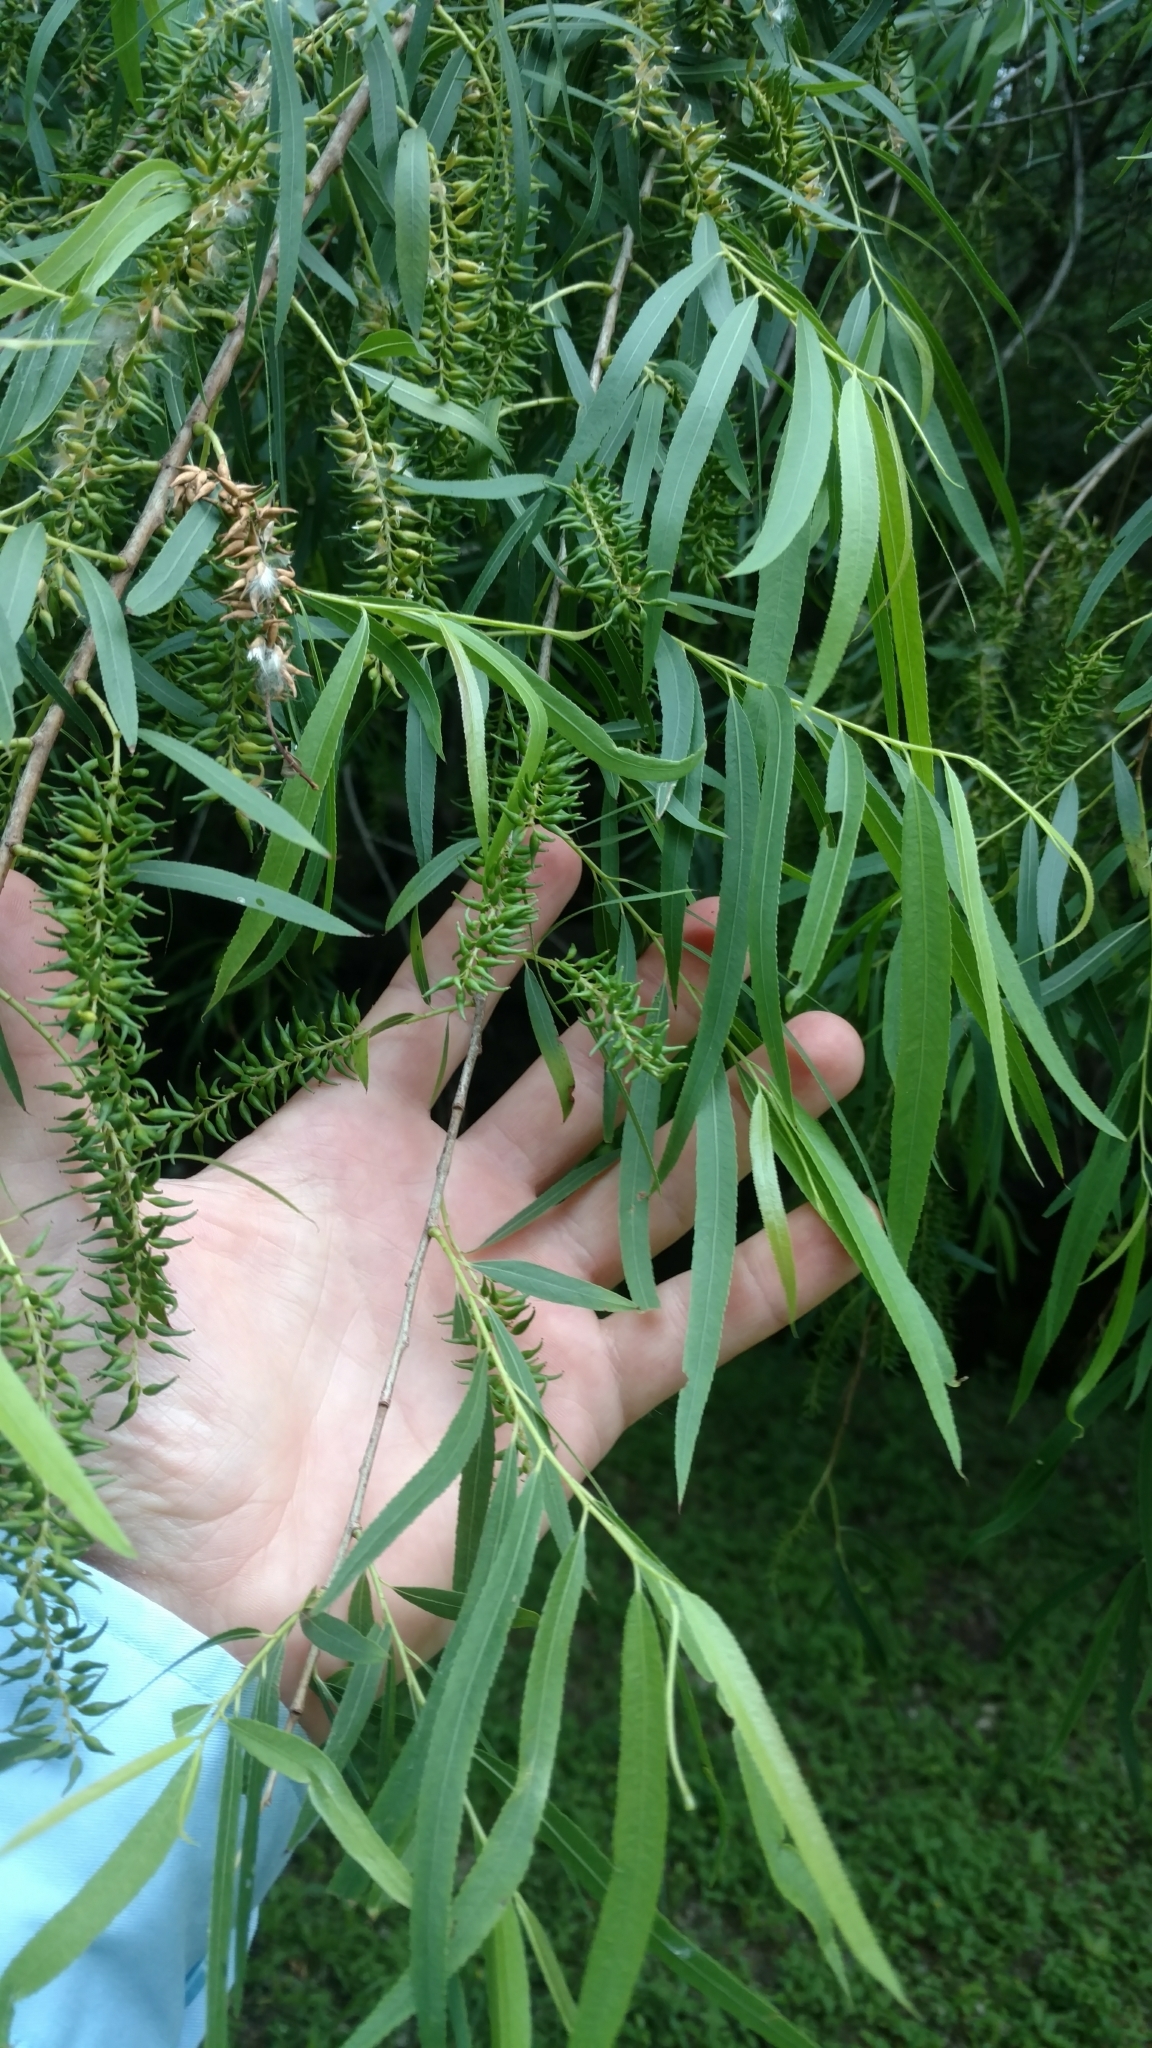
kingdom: Plantae
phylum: Tracheophyta
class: Magnoliopsida
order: Malpighiales
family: Salicaceae
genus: Salix
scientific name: Salix nigra
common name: Black willow
